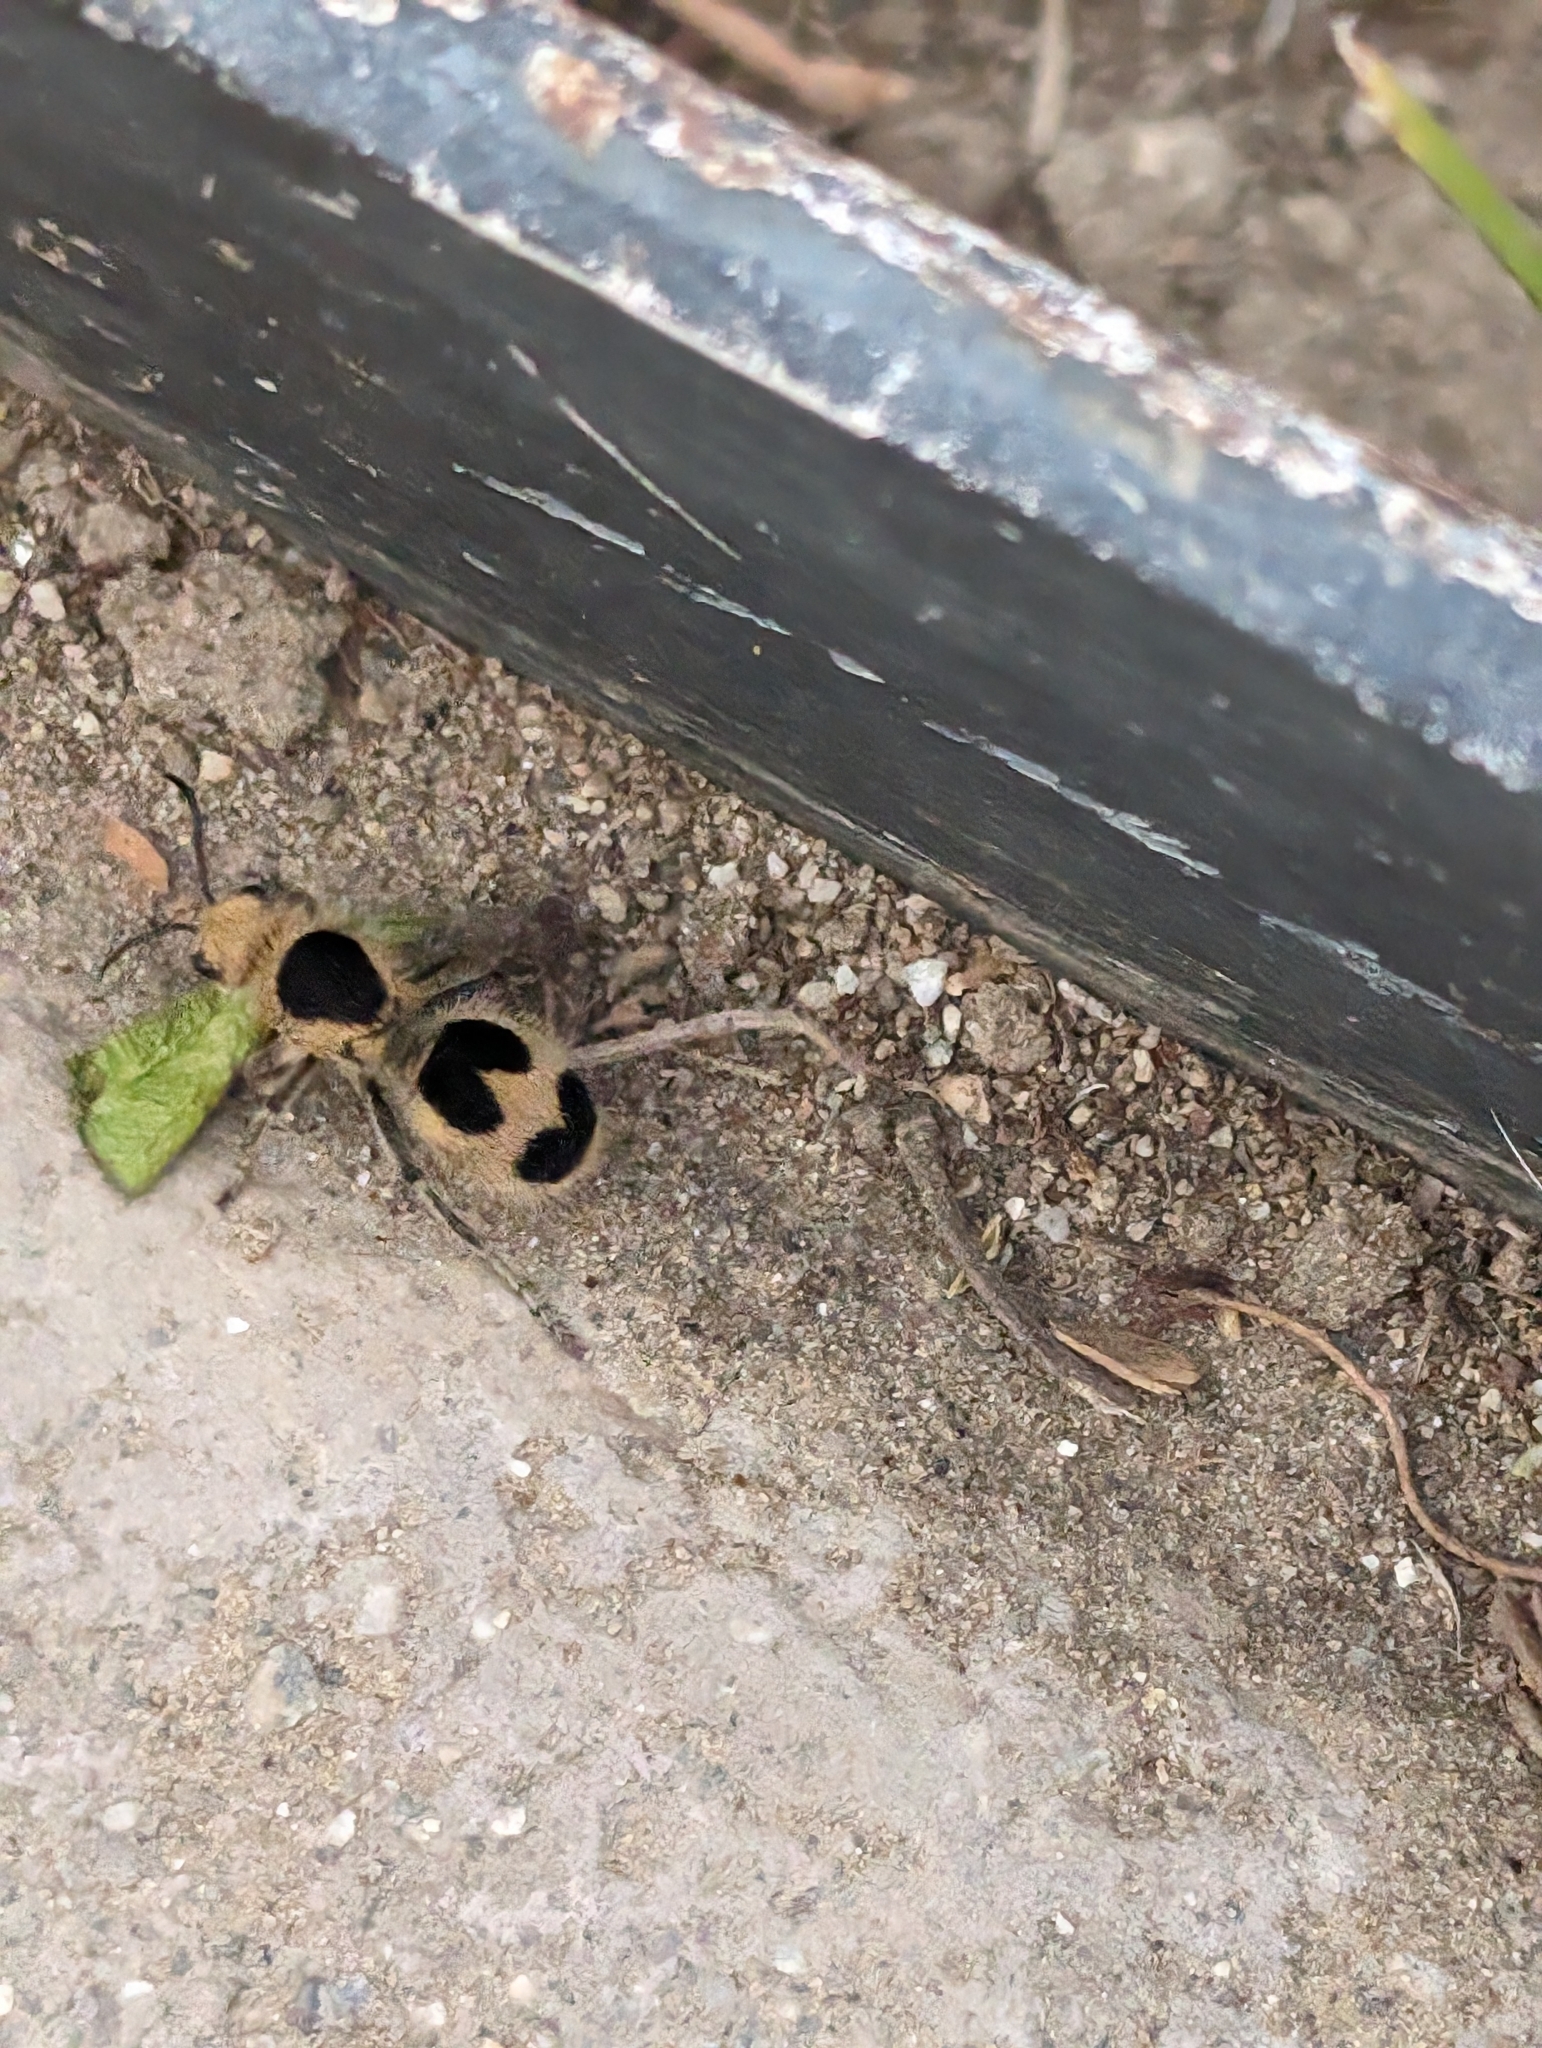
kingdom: Animalia
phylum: Arthropoda
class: Insecta
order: Hymenoptera
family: Mutillidae
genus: Dasymutilla
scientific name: Dasymutilla
